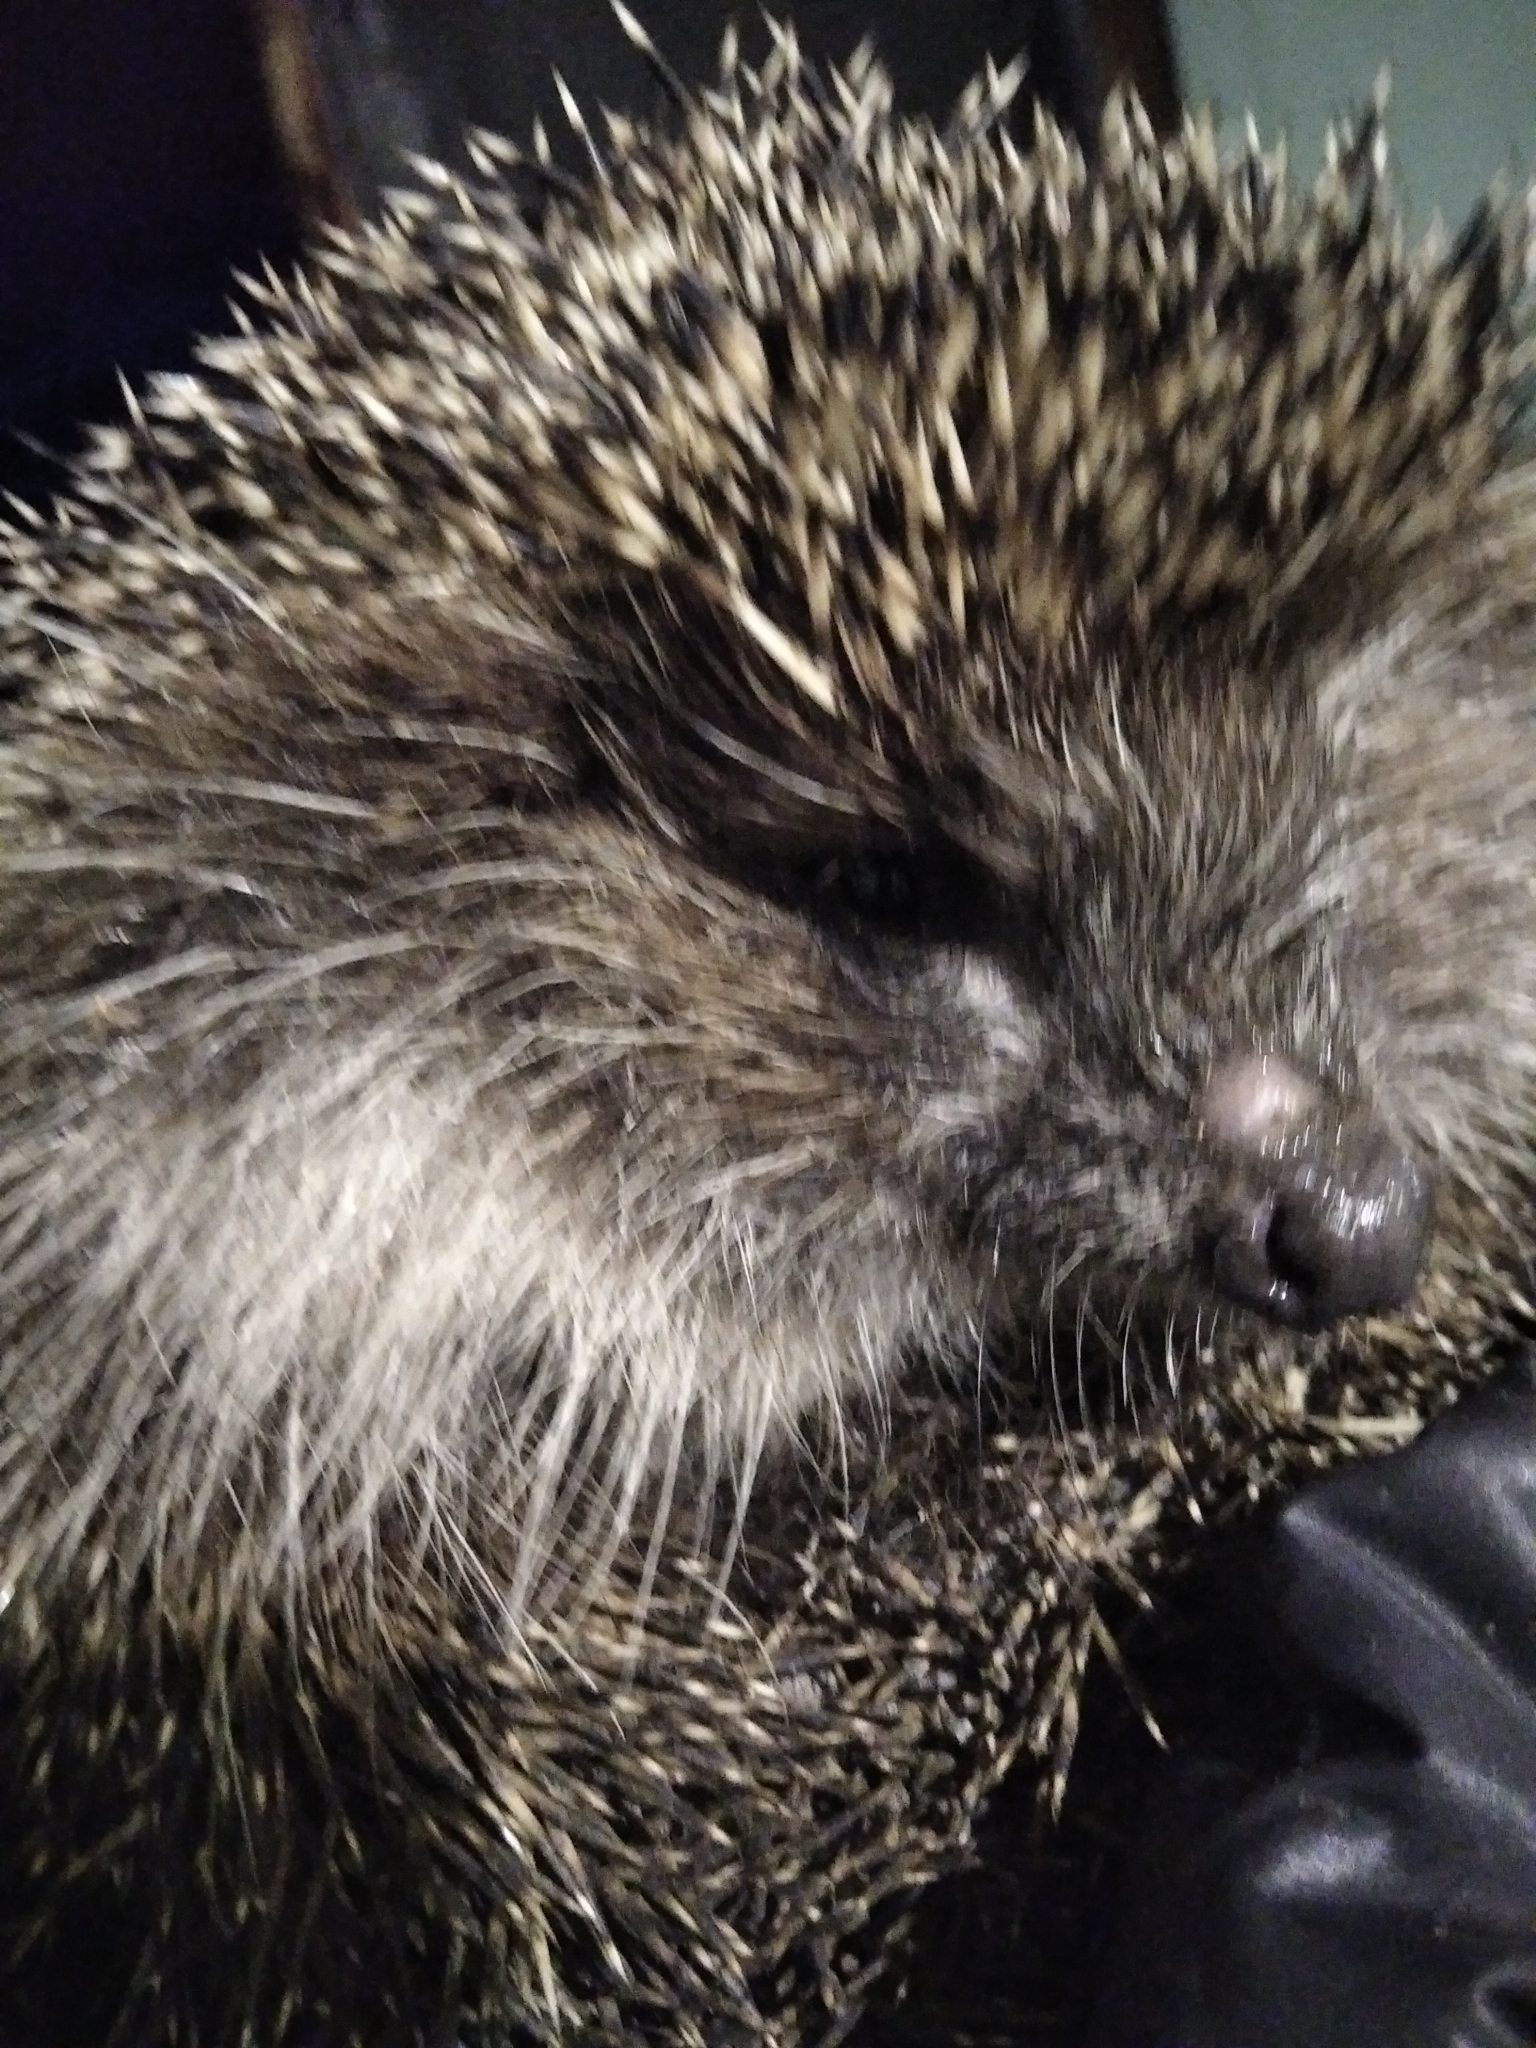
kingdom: Animalia
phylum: Chordata
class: Mammalia
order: Erinaceomorpha
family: Erinaceidae
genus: Erinaceus
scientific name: Erinaceus roumanicus
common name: Northern white-breasted hedgehog
